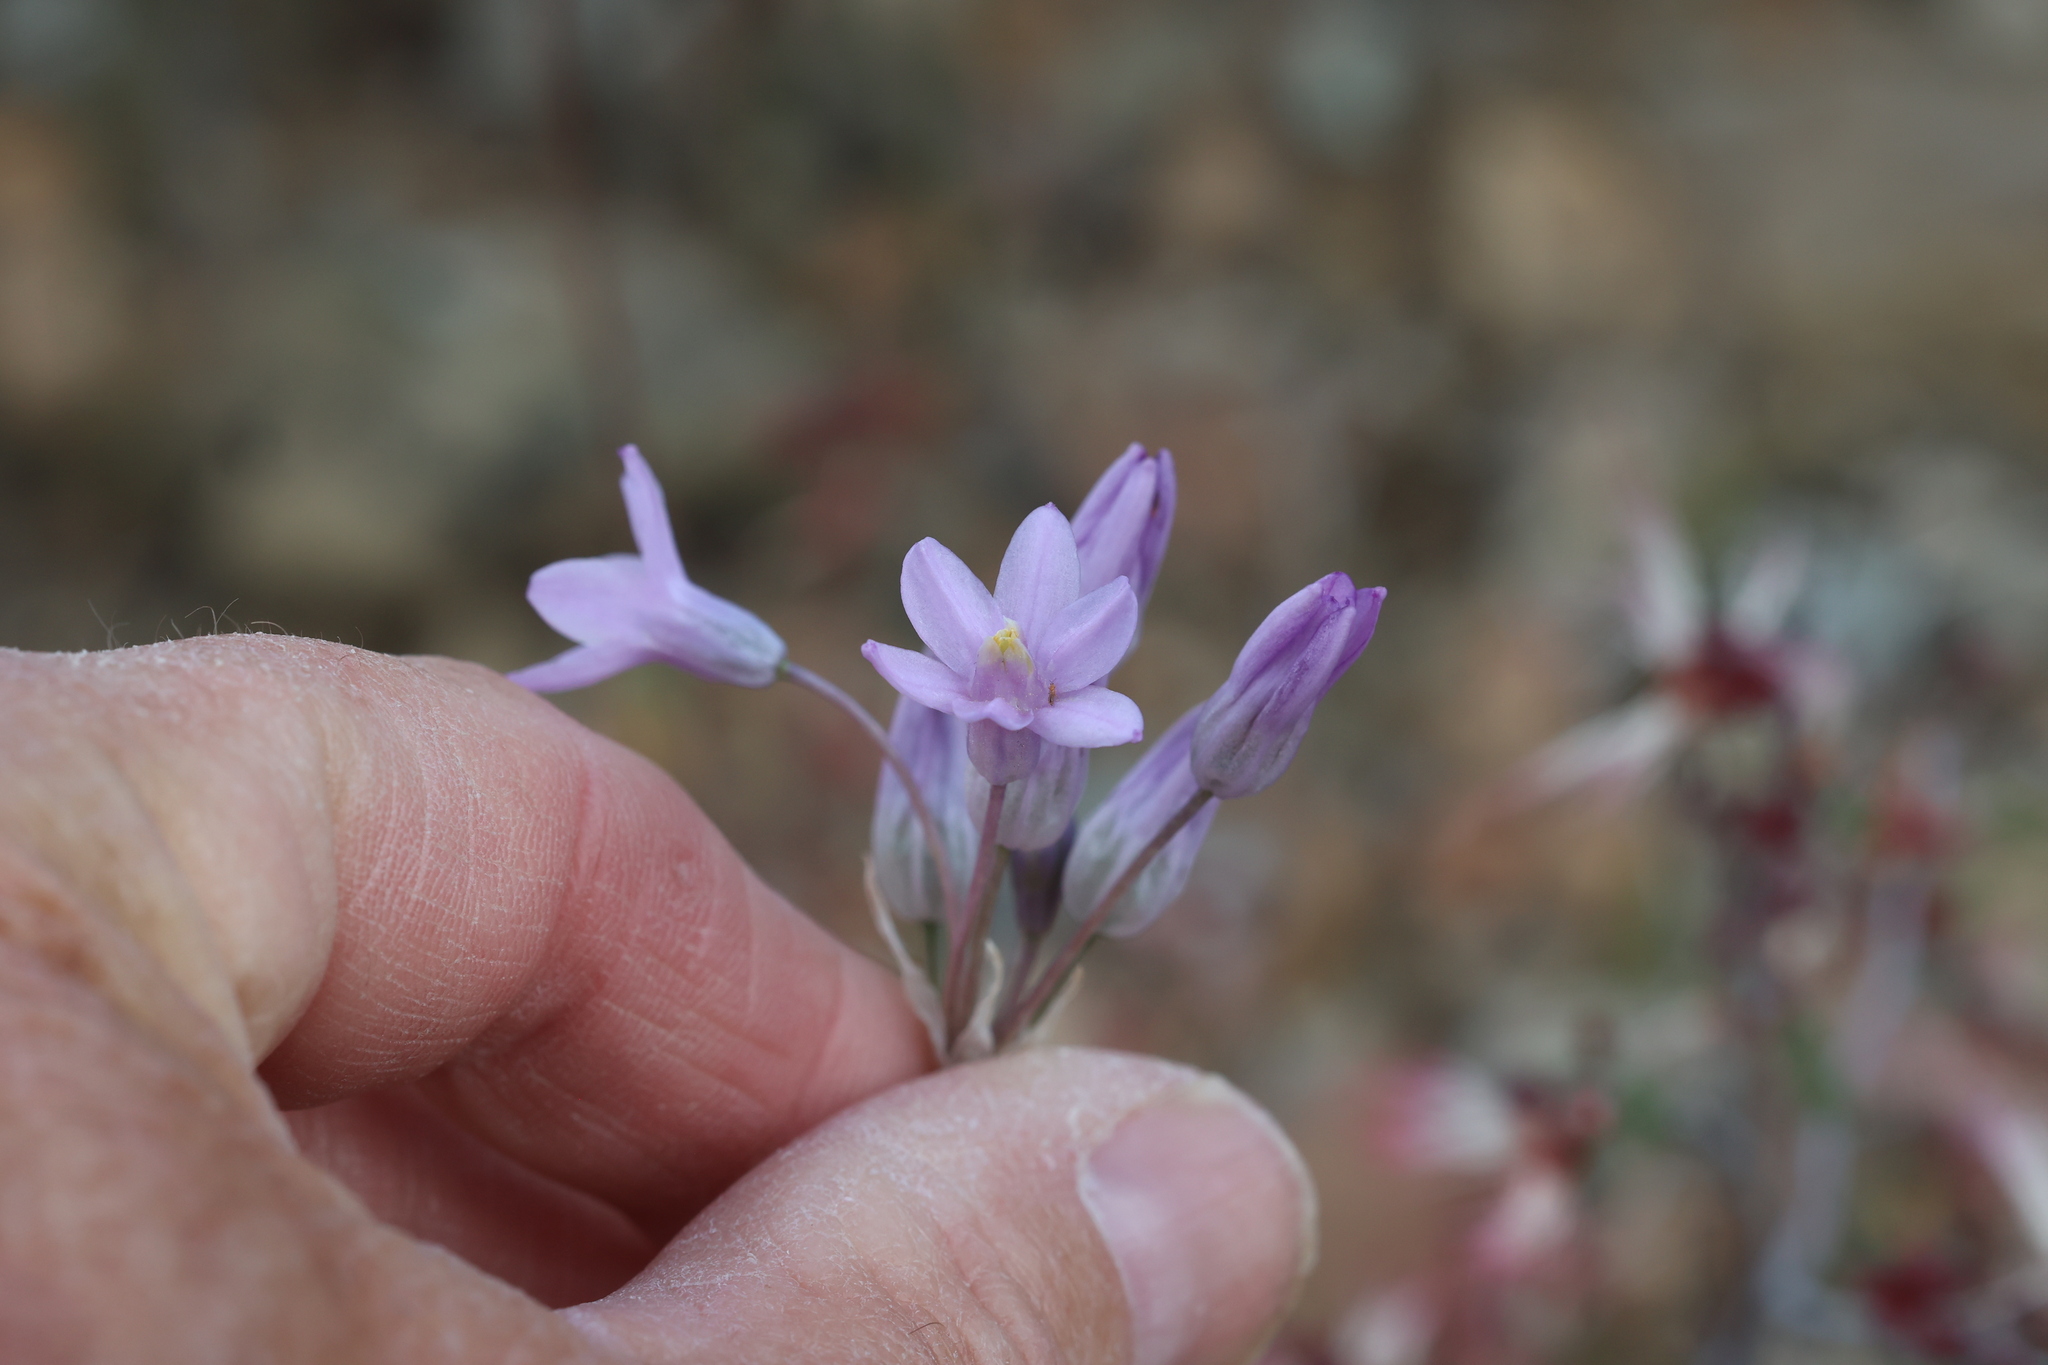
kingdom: Plantae
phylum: Tracheophyta
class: Liliopsida
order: Asparagales
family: Asparagaceae
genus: Dipterostemon
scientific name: Dipterostemon capitatus
